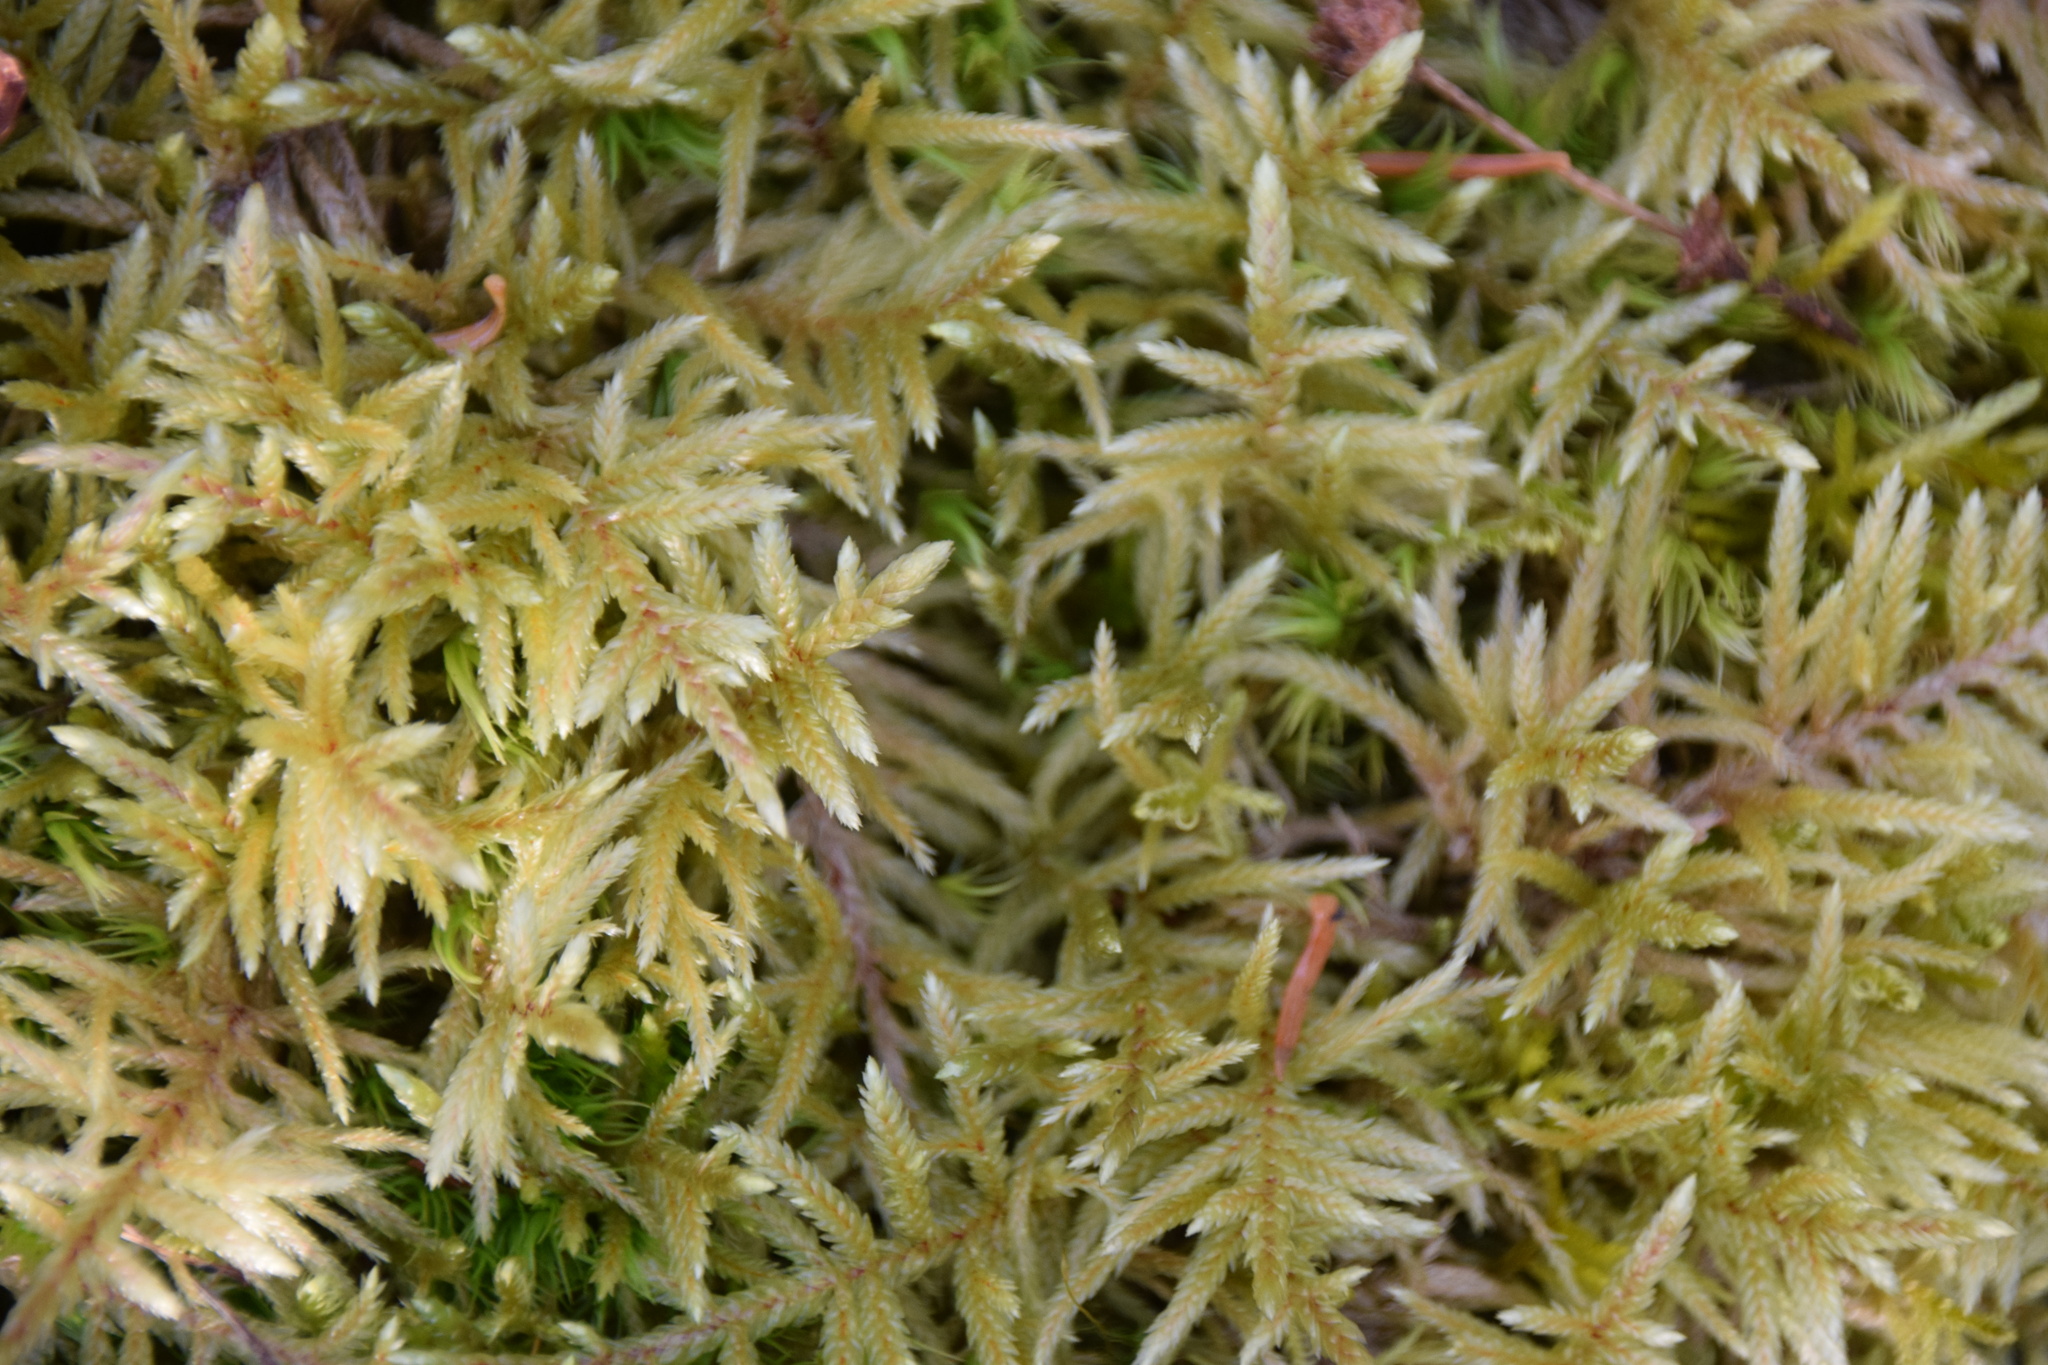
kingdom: Plantae
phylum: Bryophyta
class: Bryopsida
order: Hypnales
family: Hylocomiaceae
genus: Pleurozium
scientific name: Pleurozium schreberi
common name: Red-stemmed feather moss
